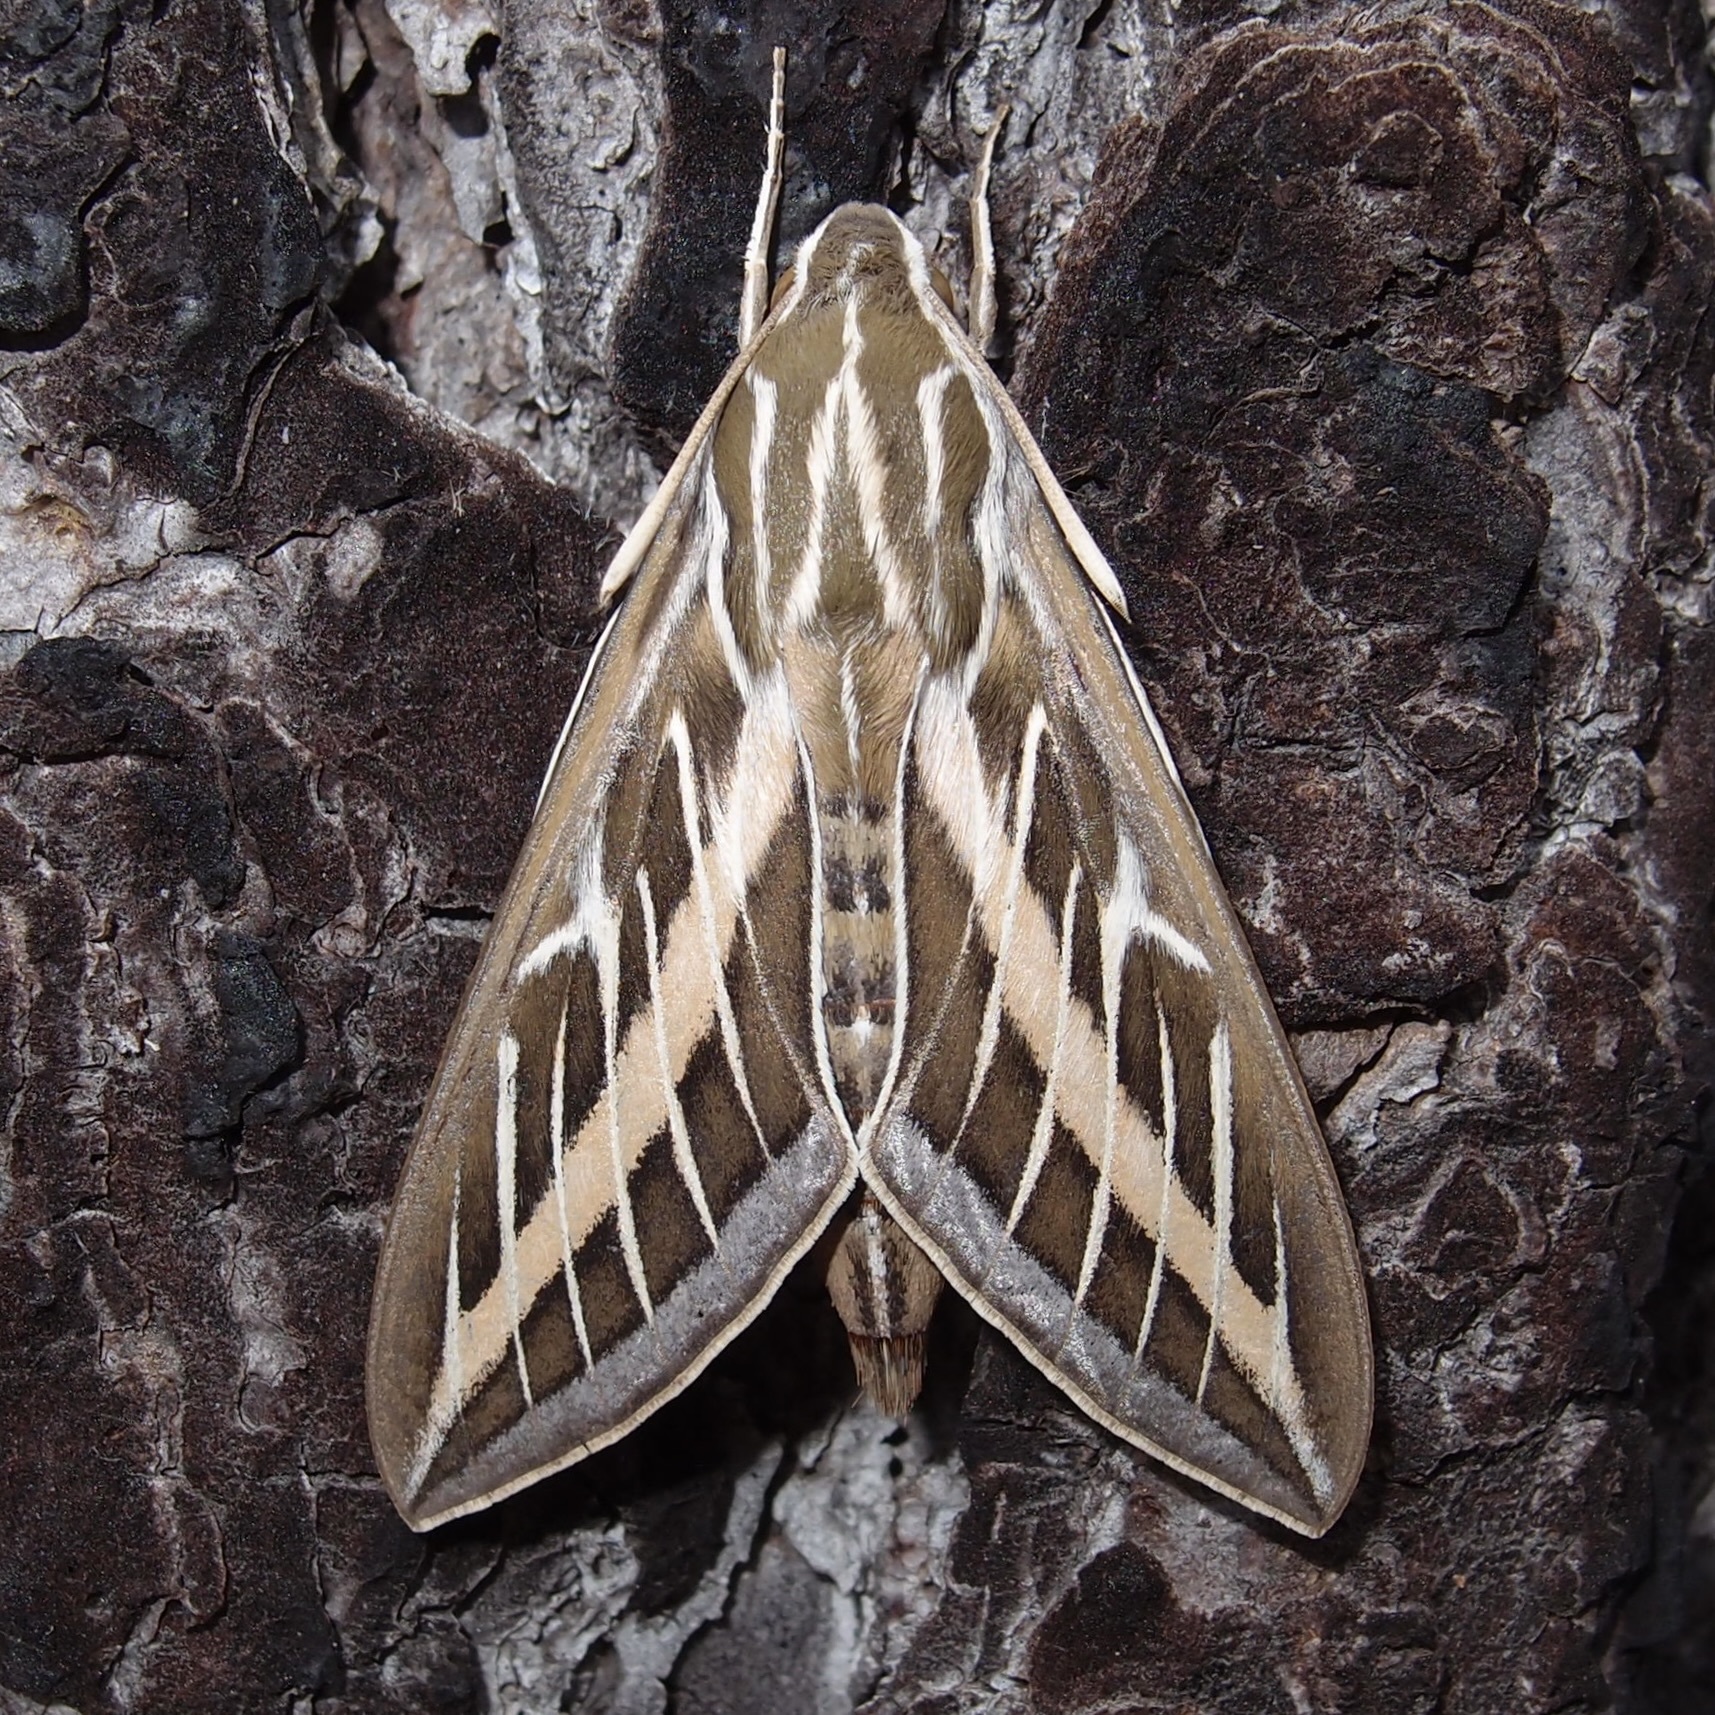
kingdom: Animalia
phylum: Arthropoda
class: Insecta
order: Lepidoptera
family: Sphingidae
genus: Hyles
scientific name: Hyles lineata
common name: White-lined sphinx
